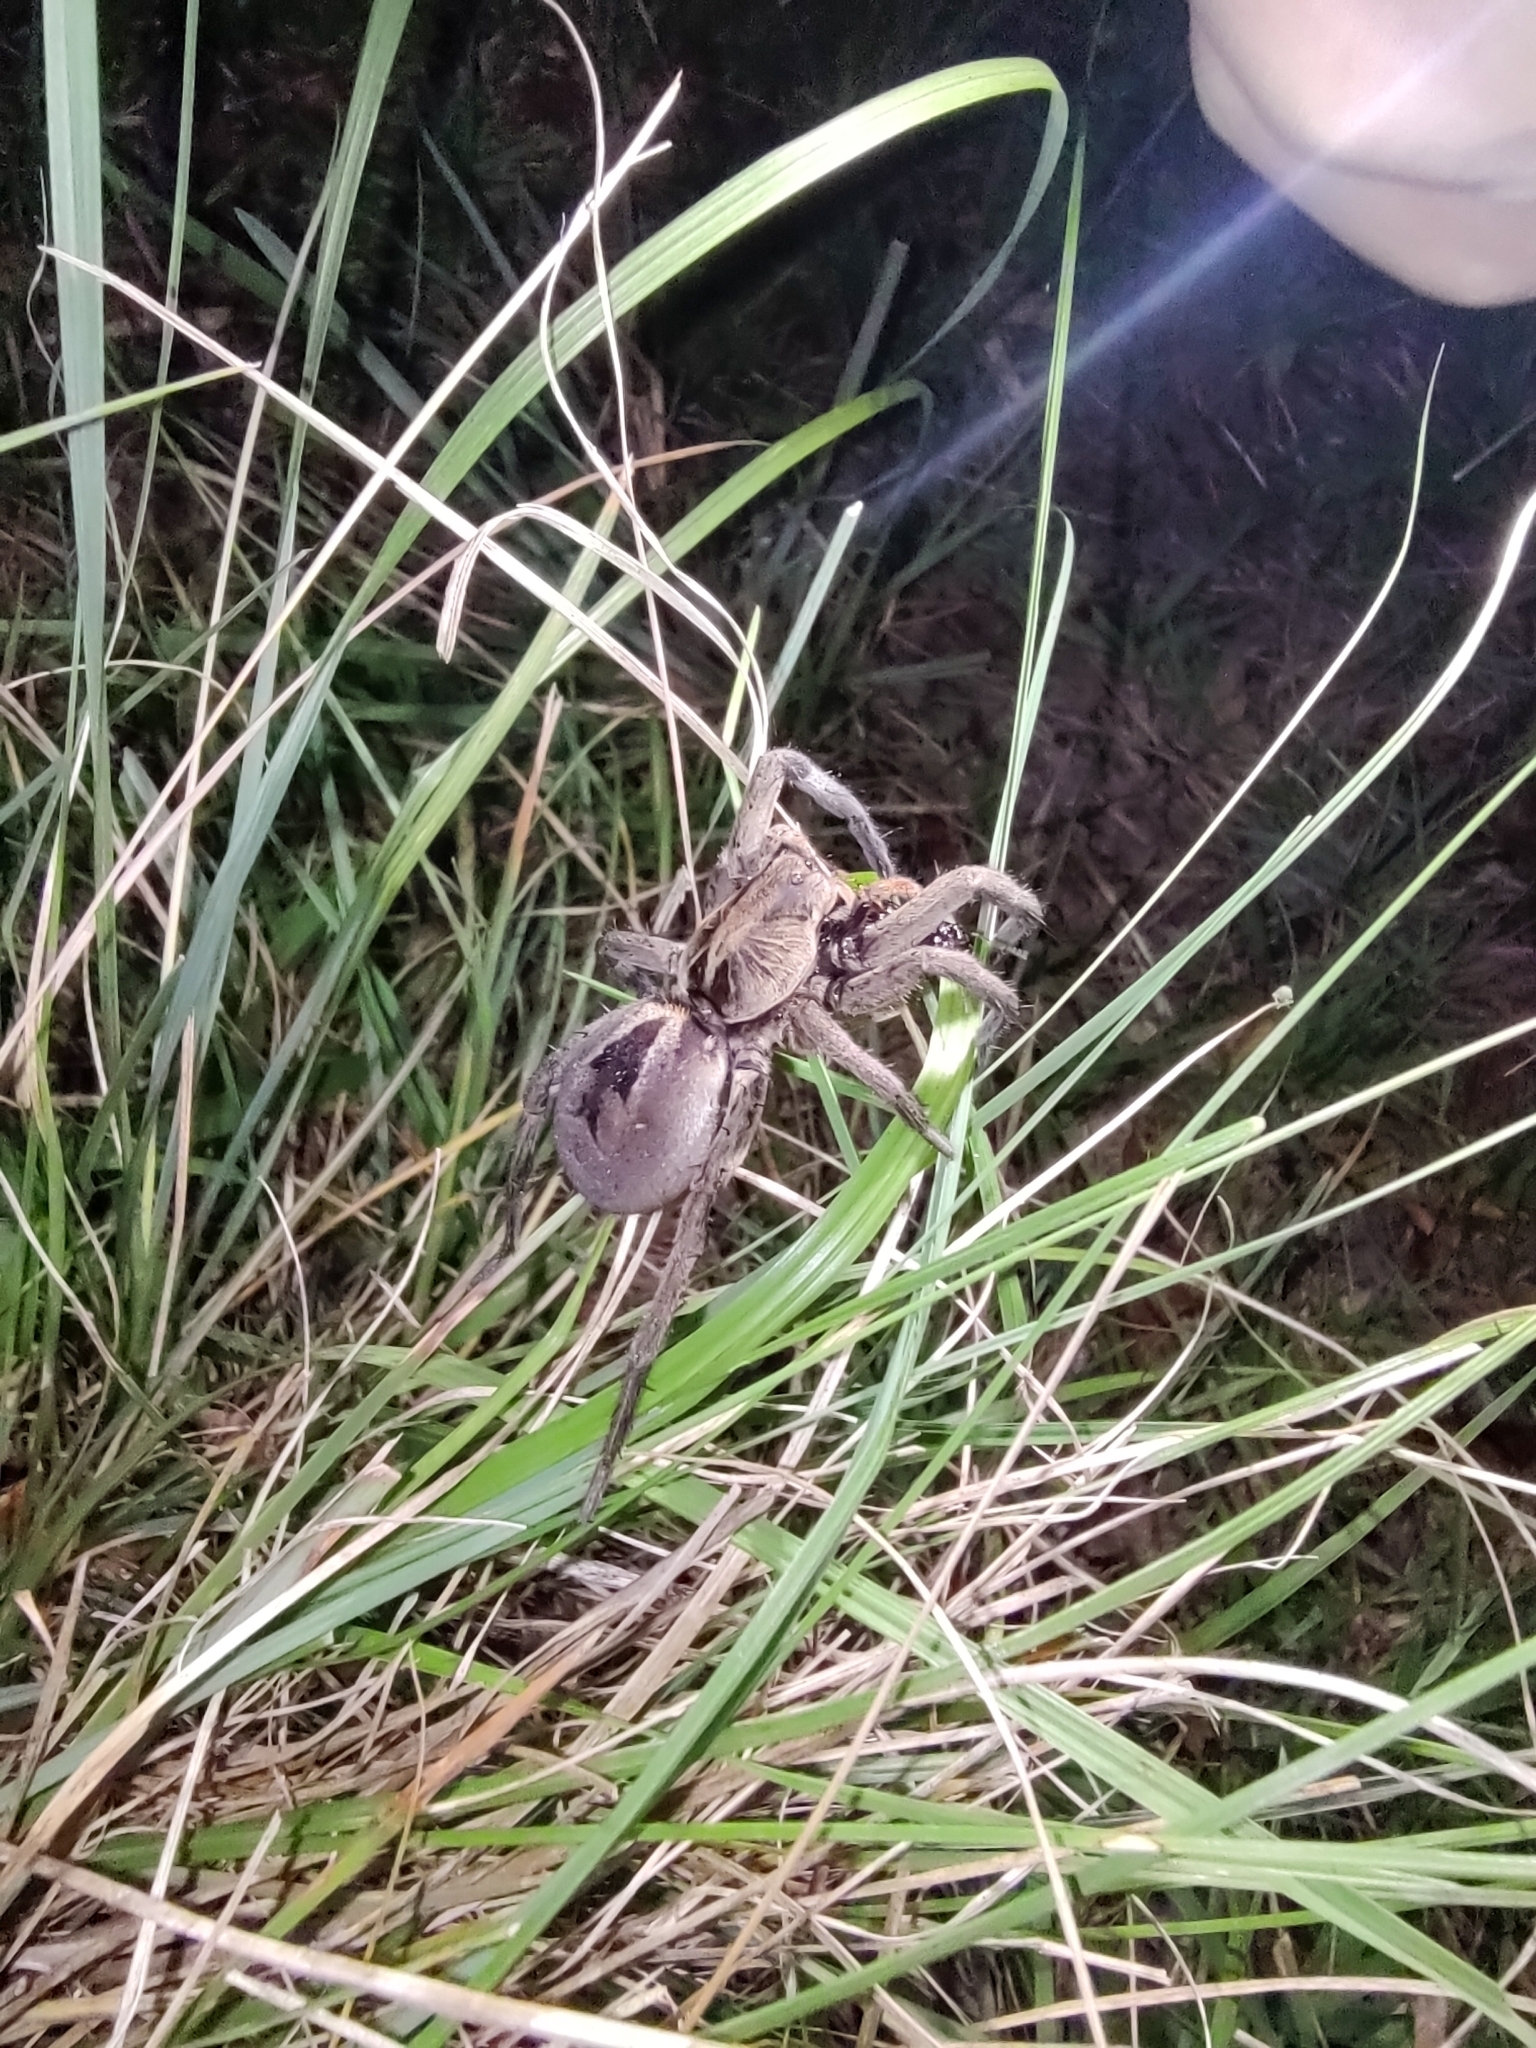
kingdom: Animalia
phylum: Arthropoda
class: Arachnida
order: Araneae
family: Lycosidae
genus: Lycosa
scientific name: Lycosa erythrognatha
